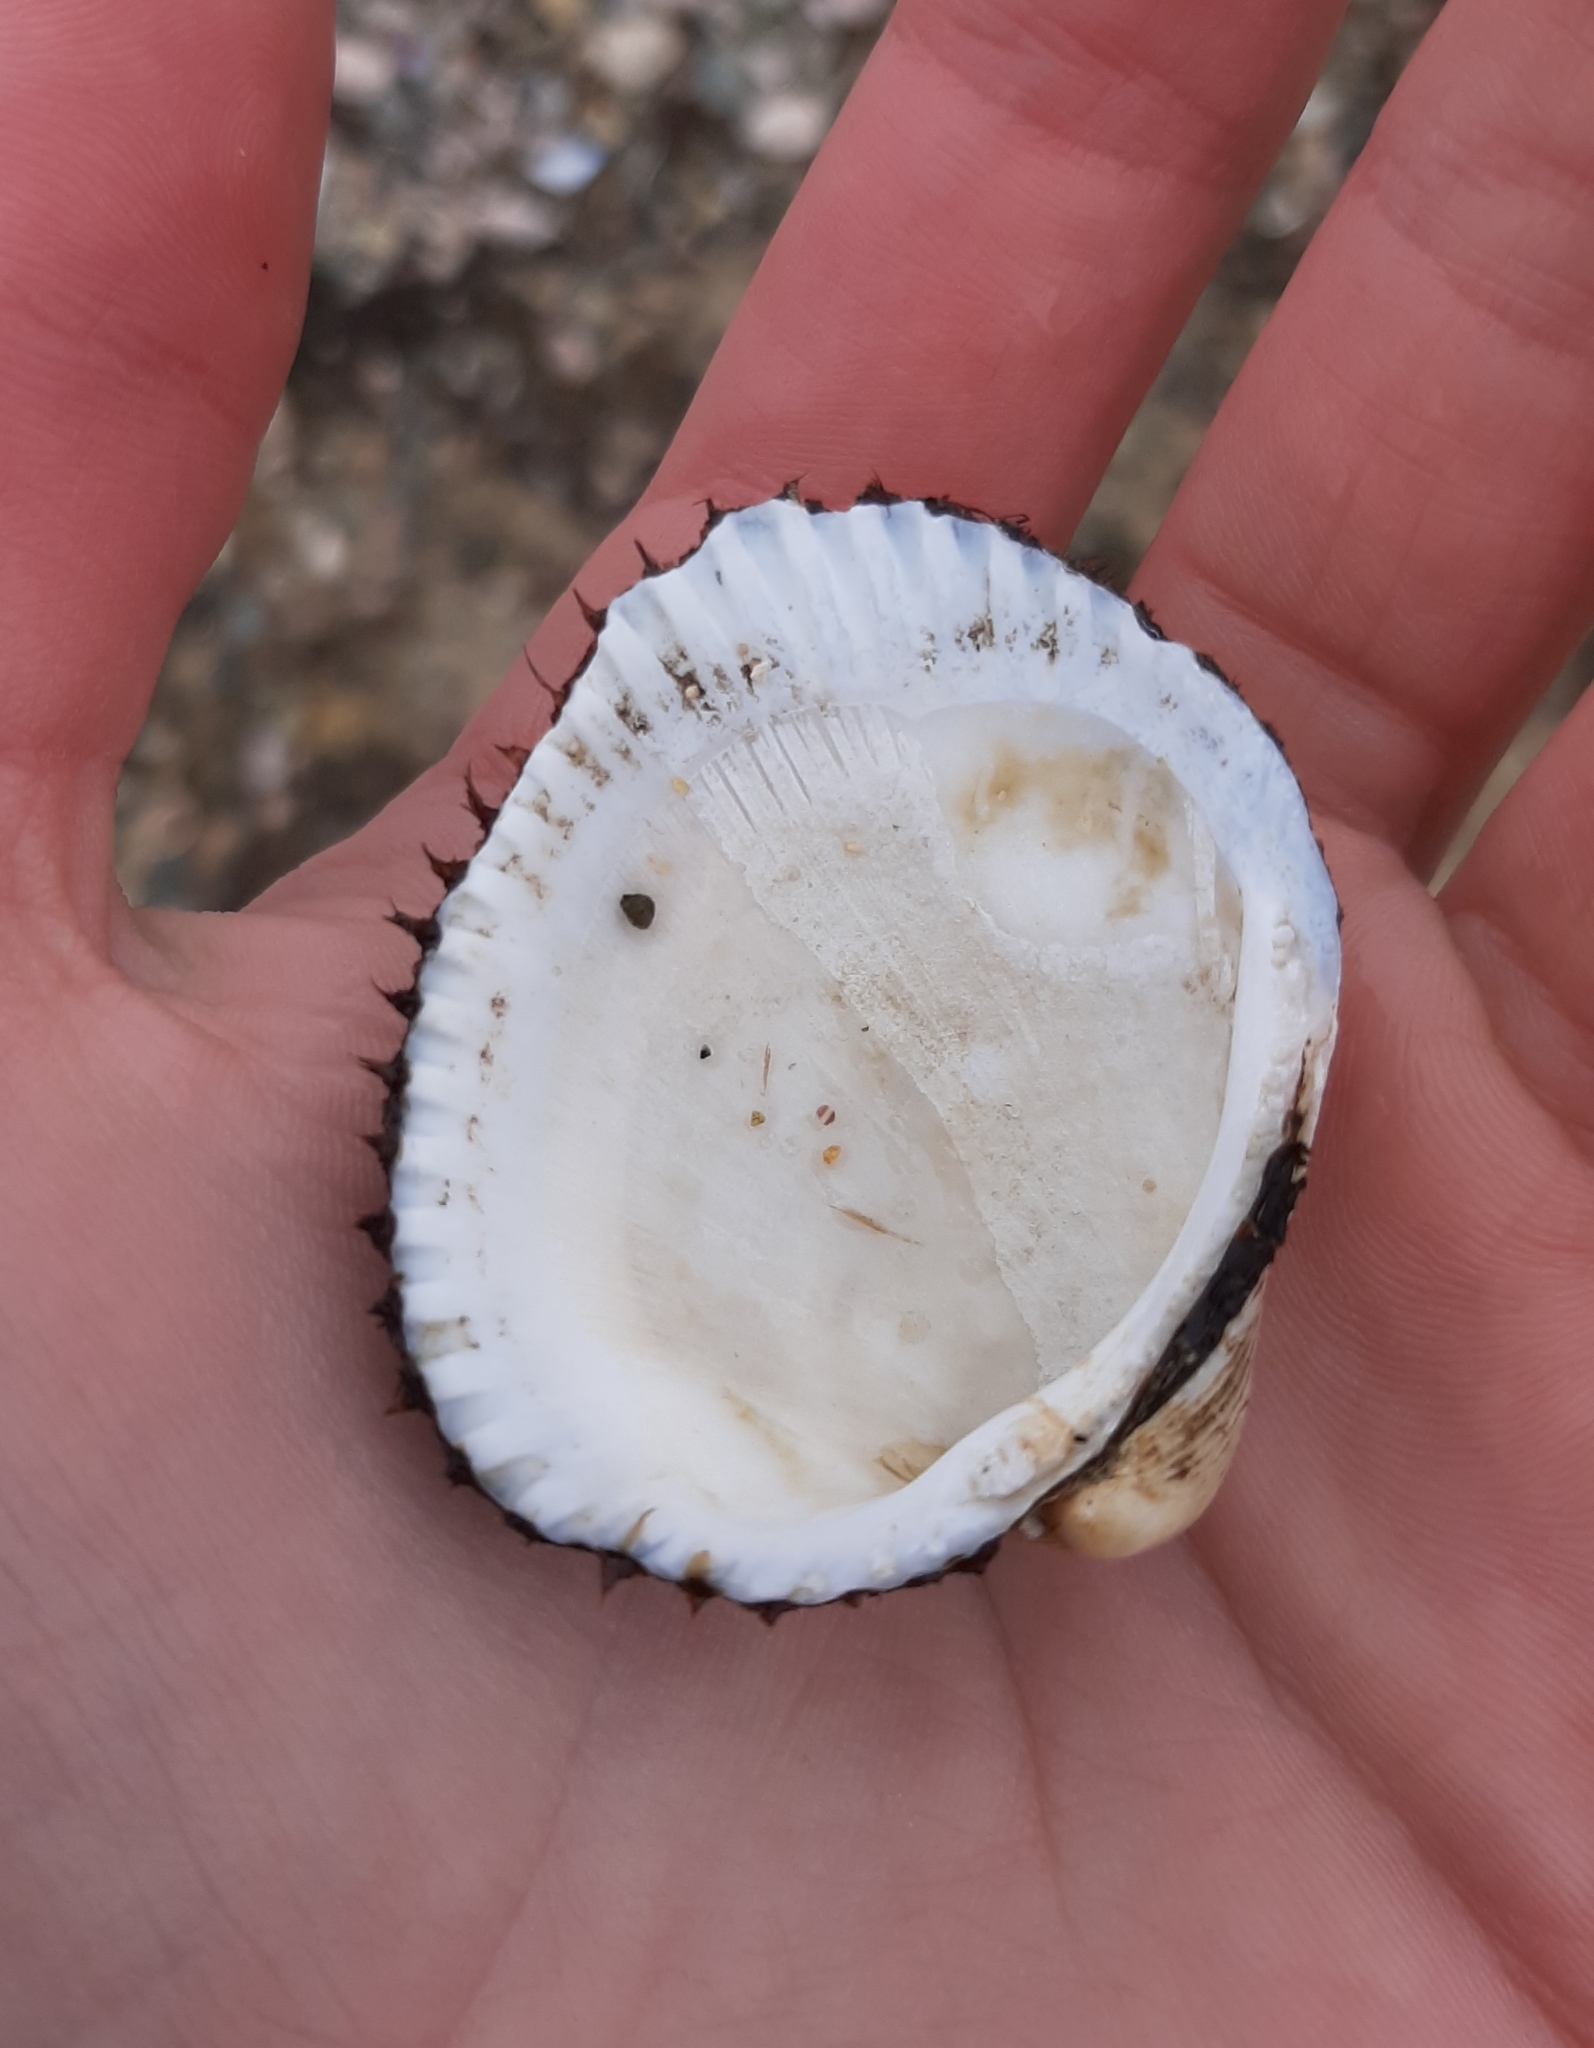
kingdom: Animalia
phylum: Mollusca
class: Bivalvia
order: Arcida
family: Arcidae
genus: Lunarca
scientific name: Lunarca ovalis
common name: Blood ark
